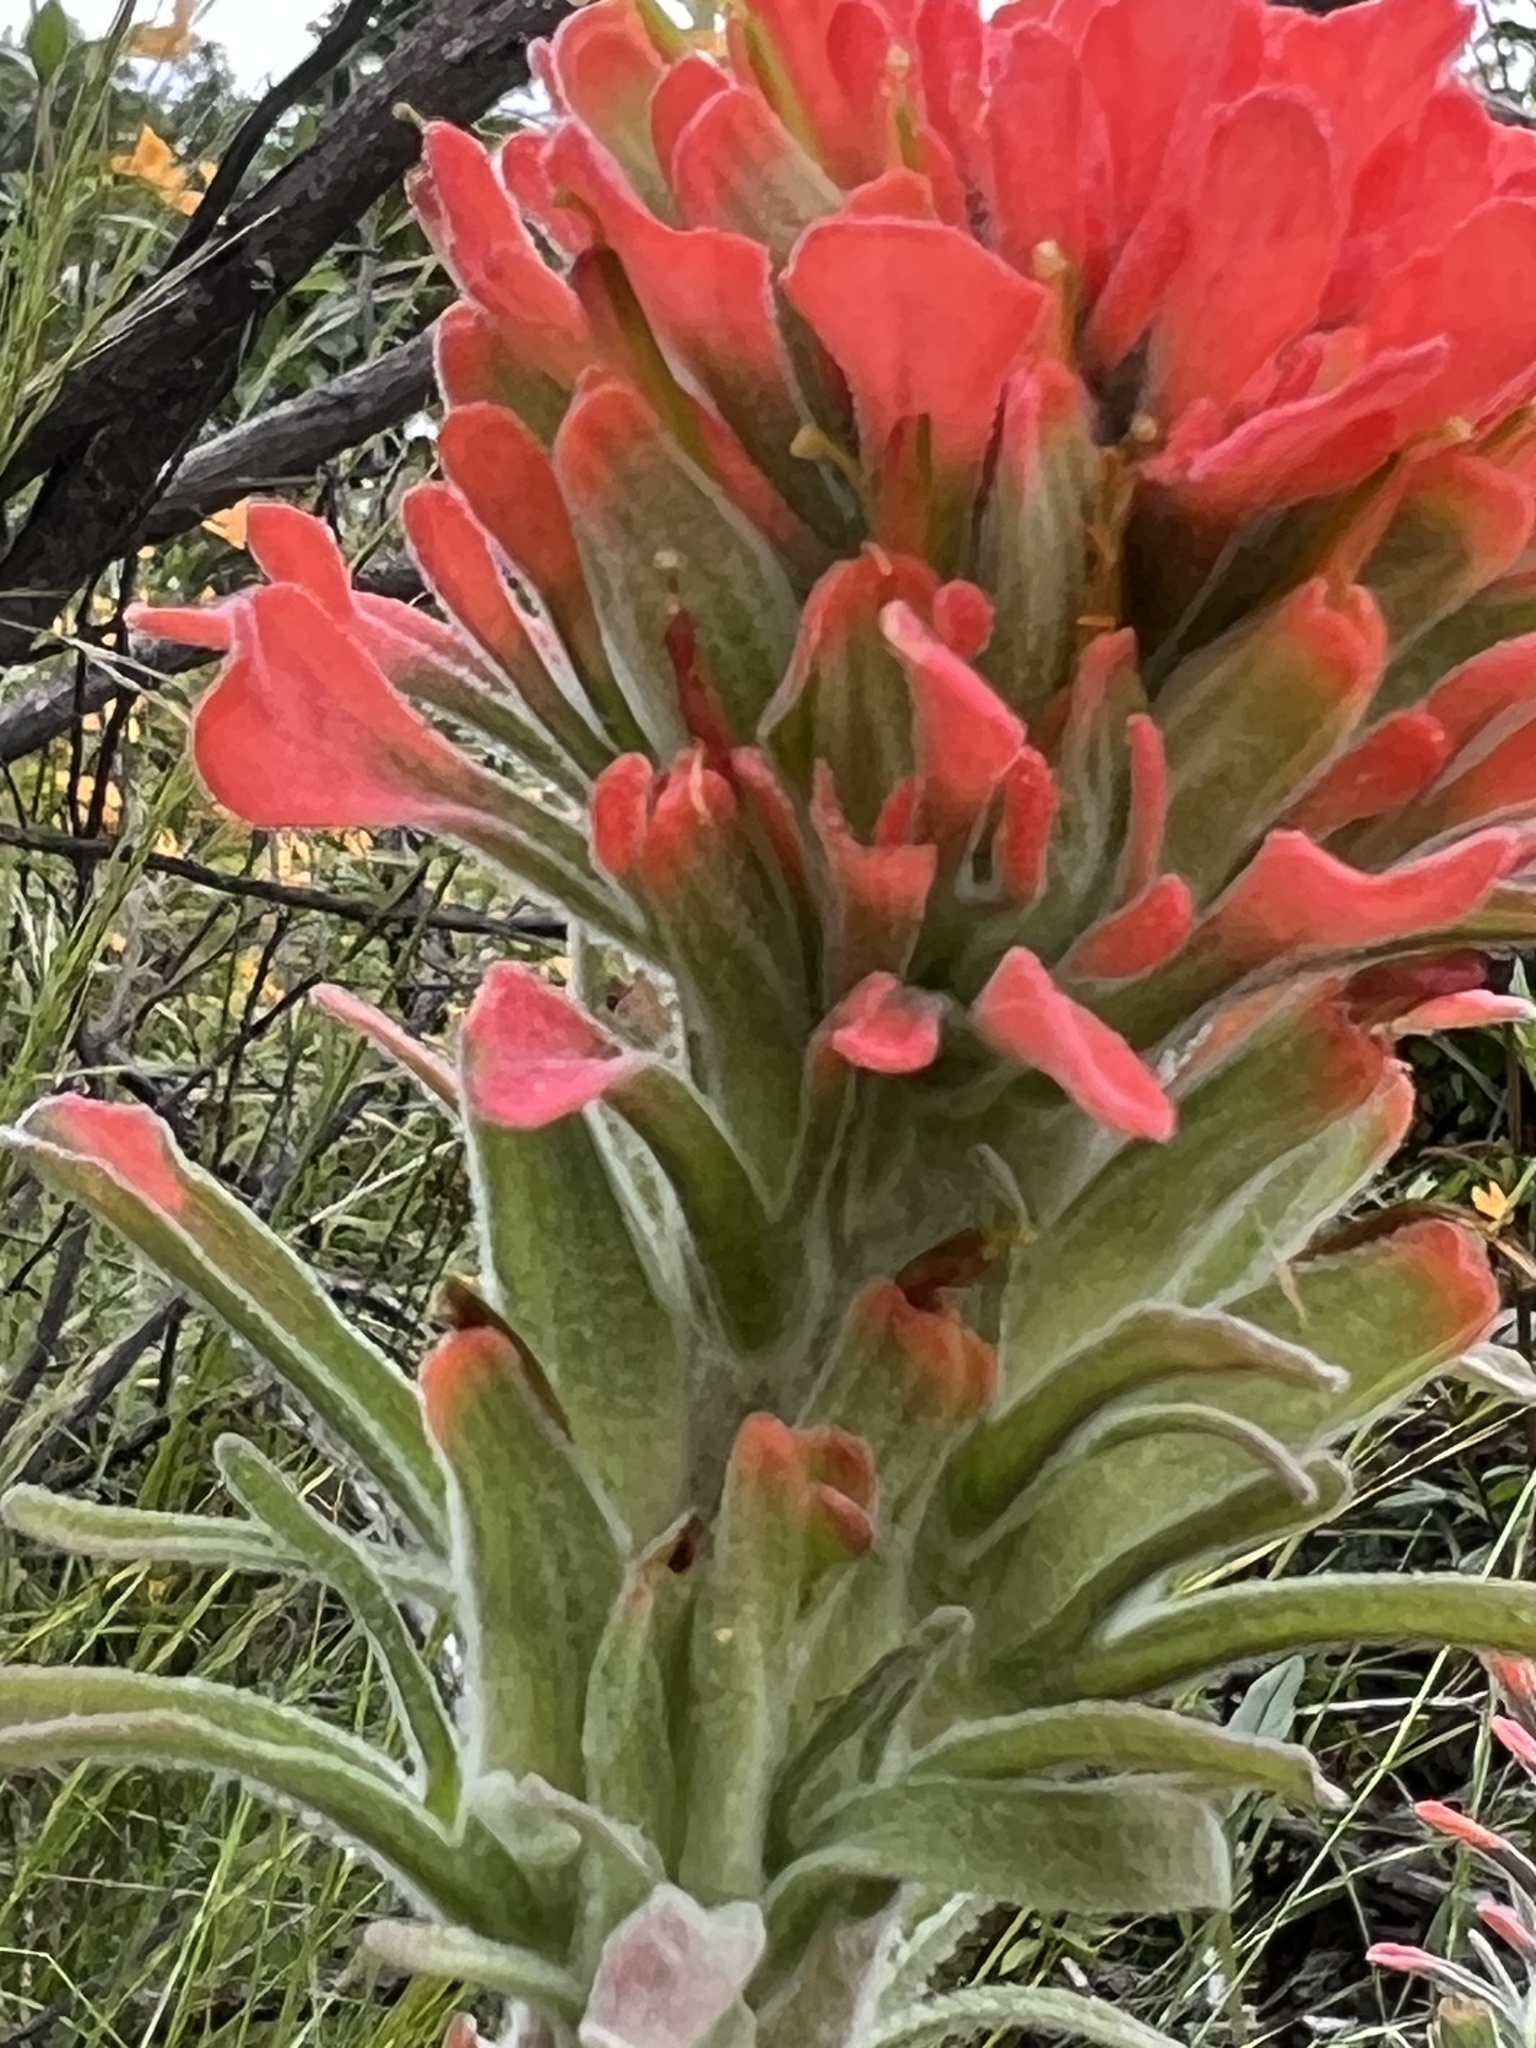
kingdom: Plantae
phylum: Tracheophyta
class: Magnoliopsida
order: Lamiales
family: Orobanchaceae
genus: Castilleja
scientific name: Castilleja foliolosa
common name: Woolly indian paintbrush
